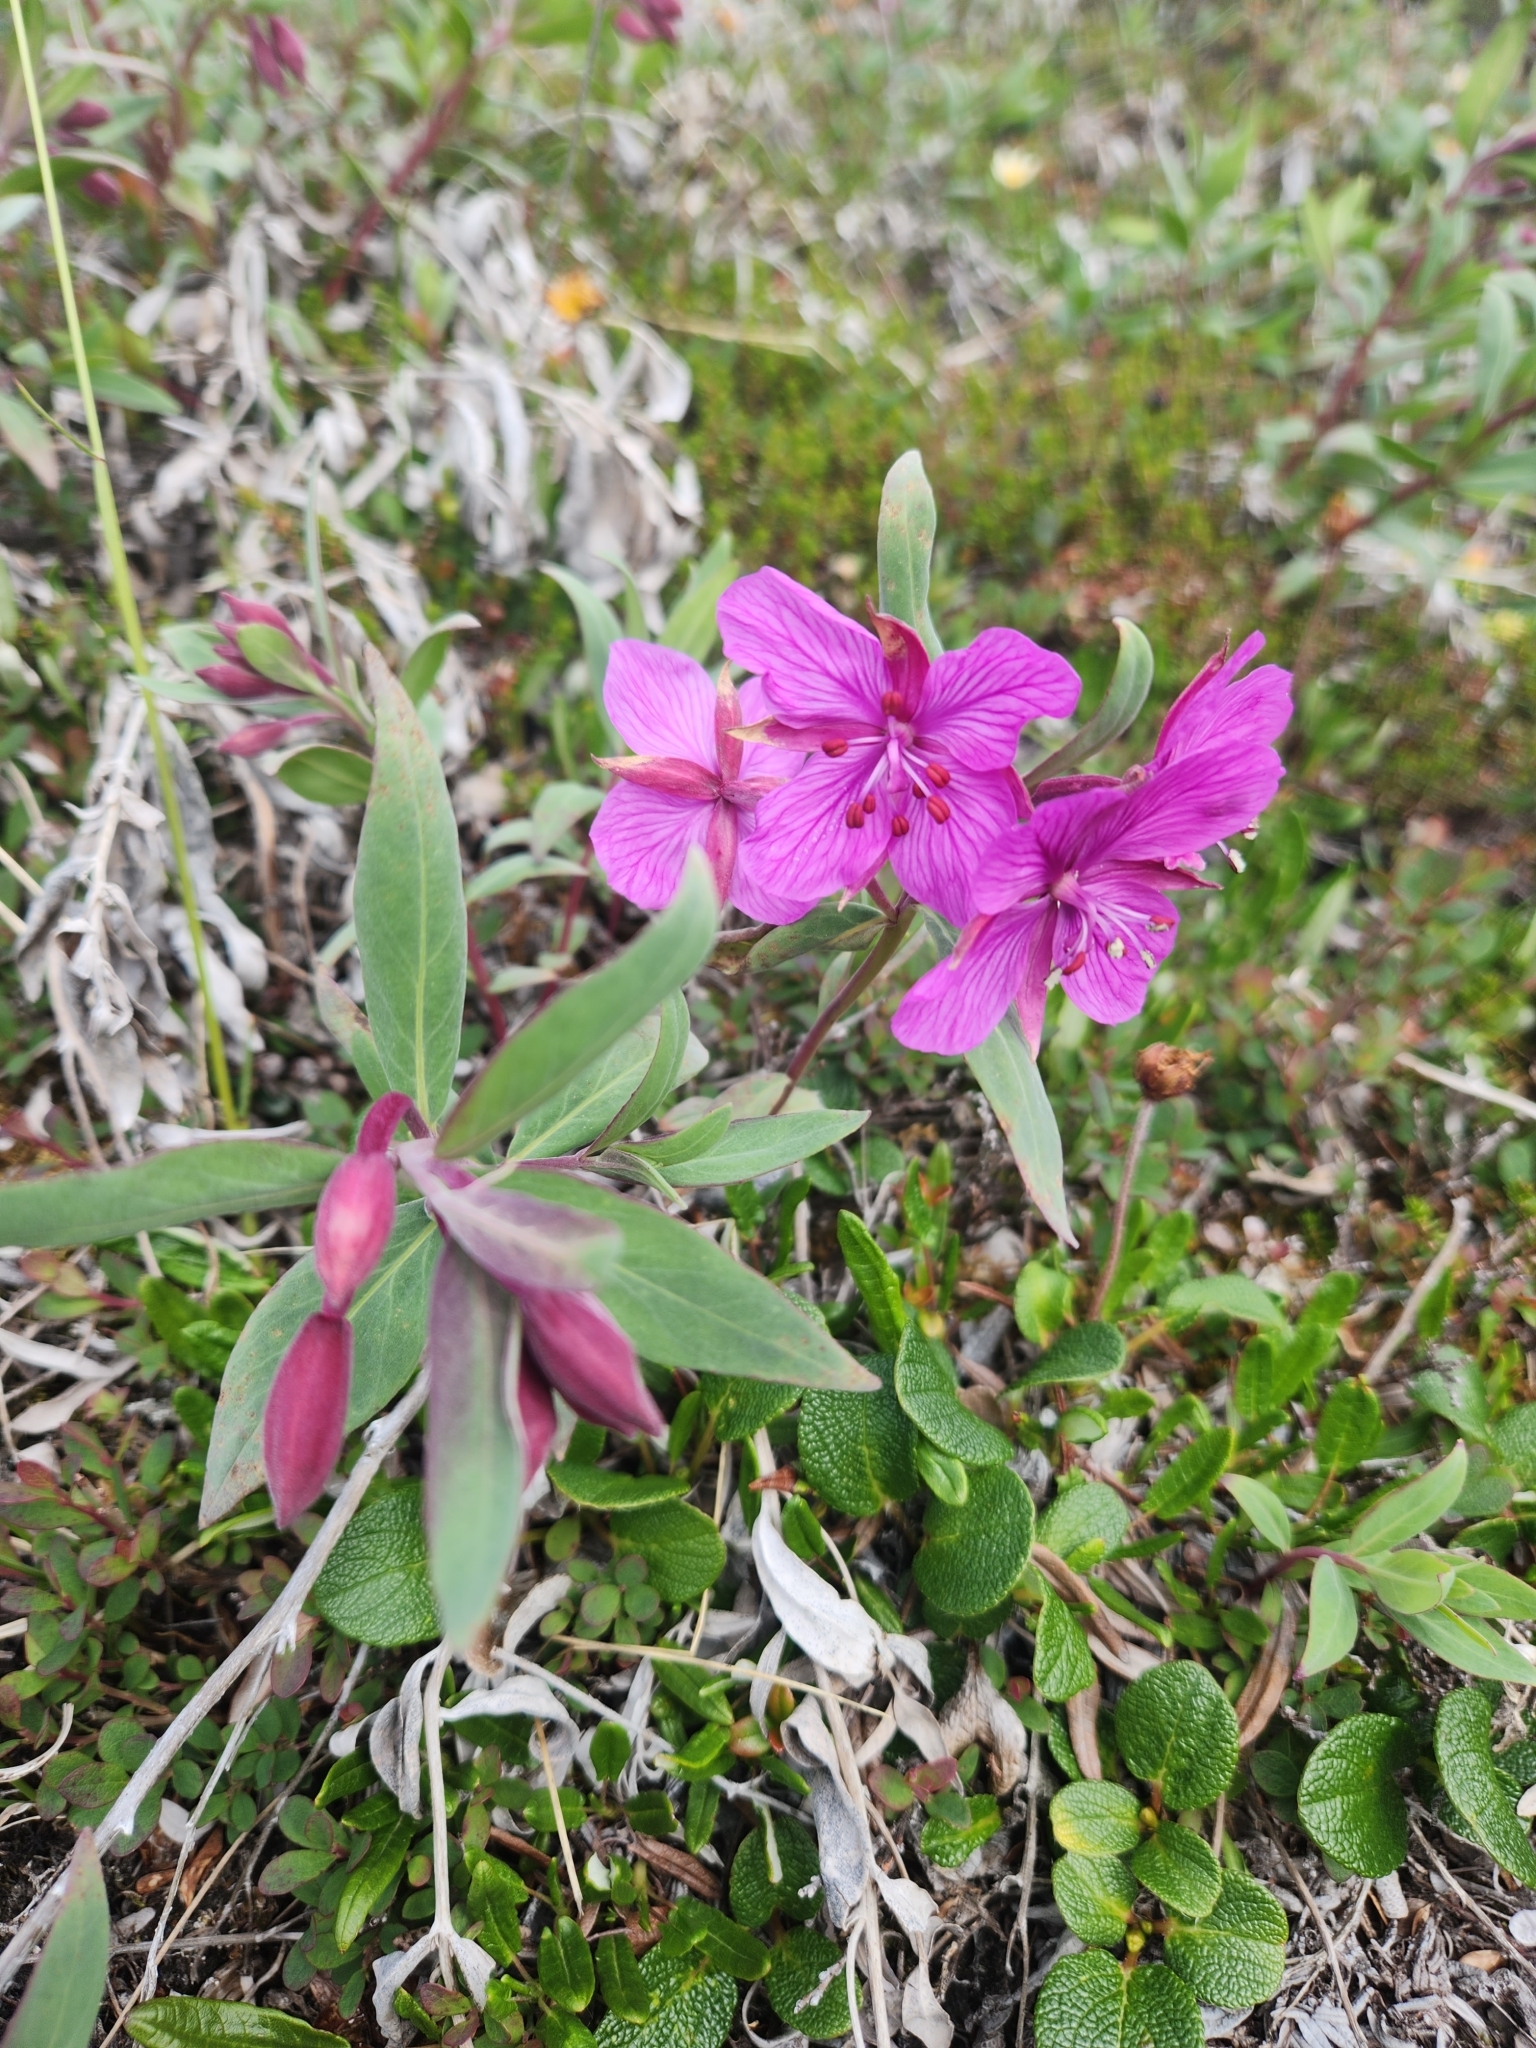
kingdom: Plantae
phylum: Tracheophyta
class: Magnoliopsida
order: Myrtales
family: Onagraceae
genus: Chamaenerion
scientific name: Chamaenerion latifolium
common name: Dwarf fireweed
